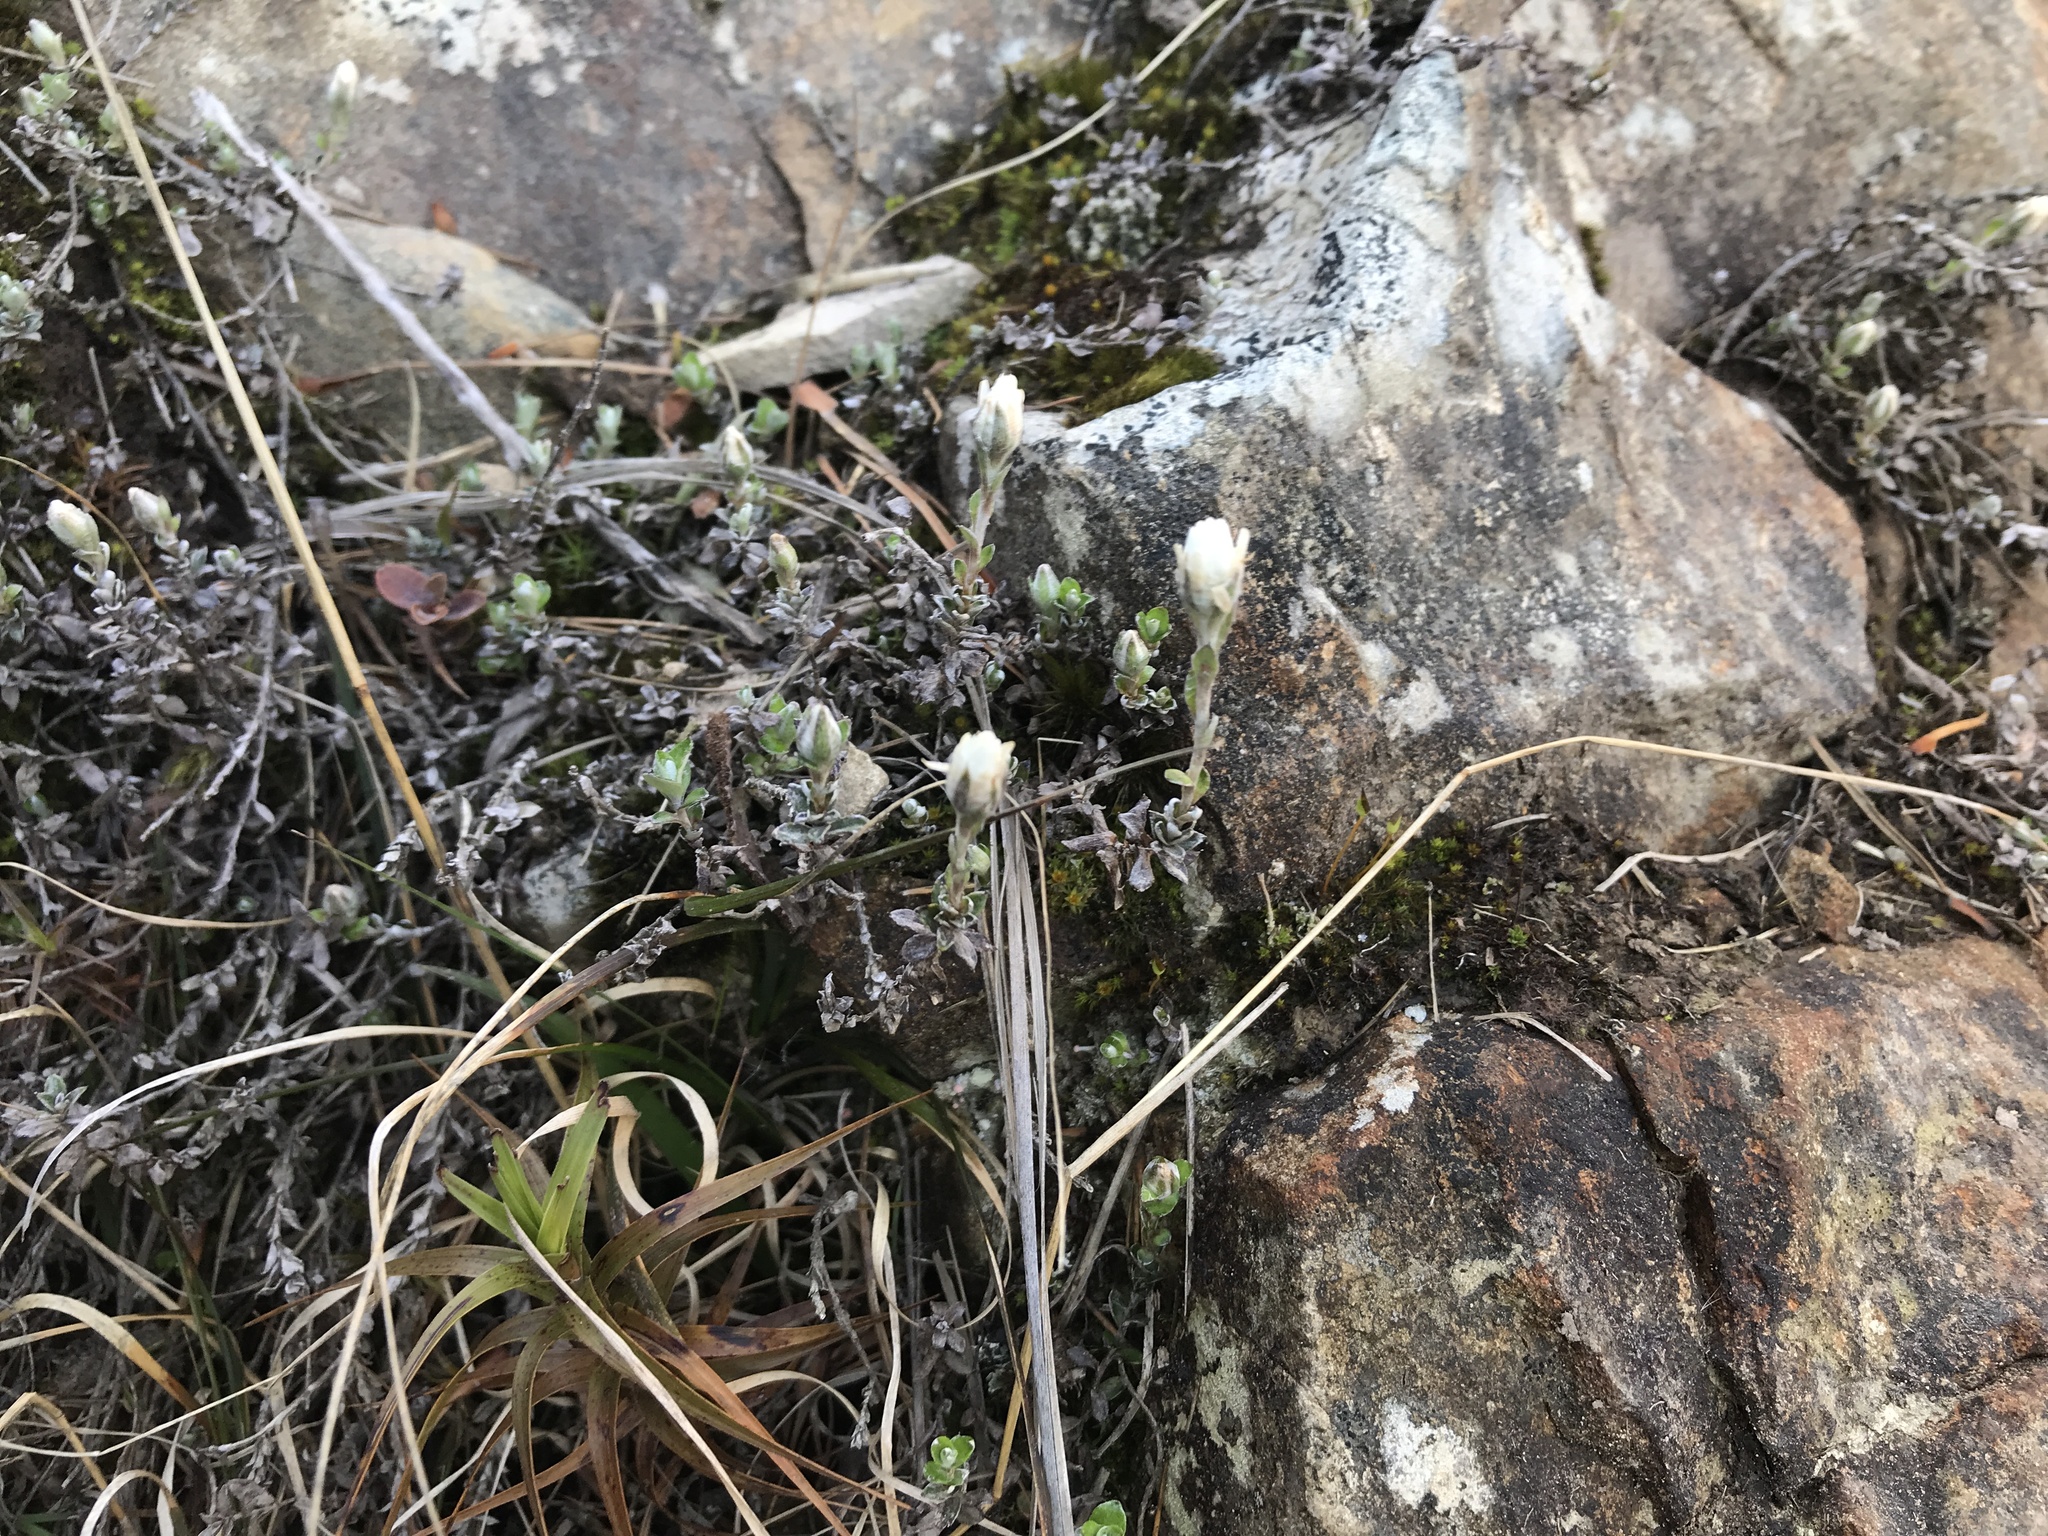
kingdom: Plantae
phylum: Tracheophyta
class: Magnoliopsida
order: Asterales
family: Asteraceae
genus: Anaphalioides
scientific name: Anaphalioides bellidioides
